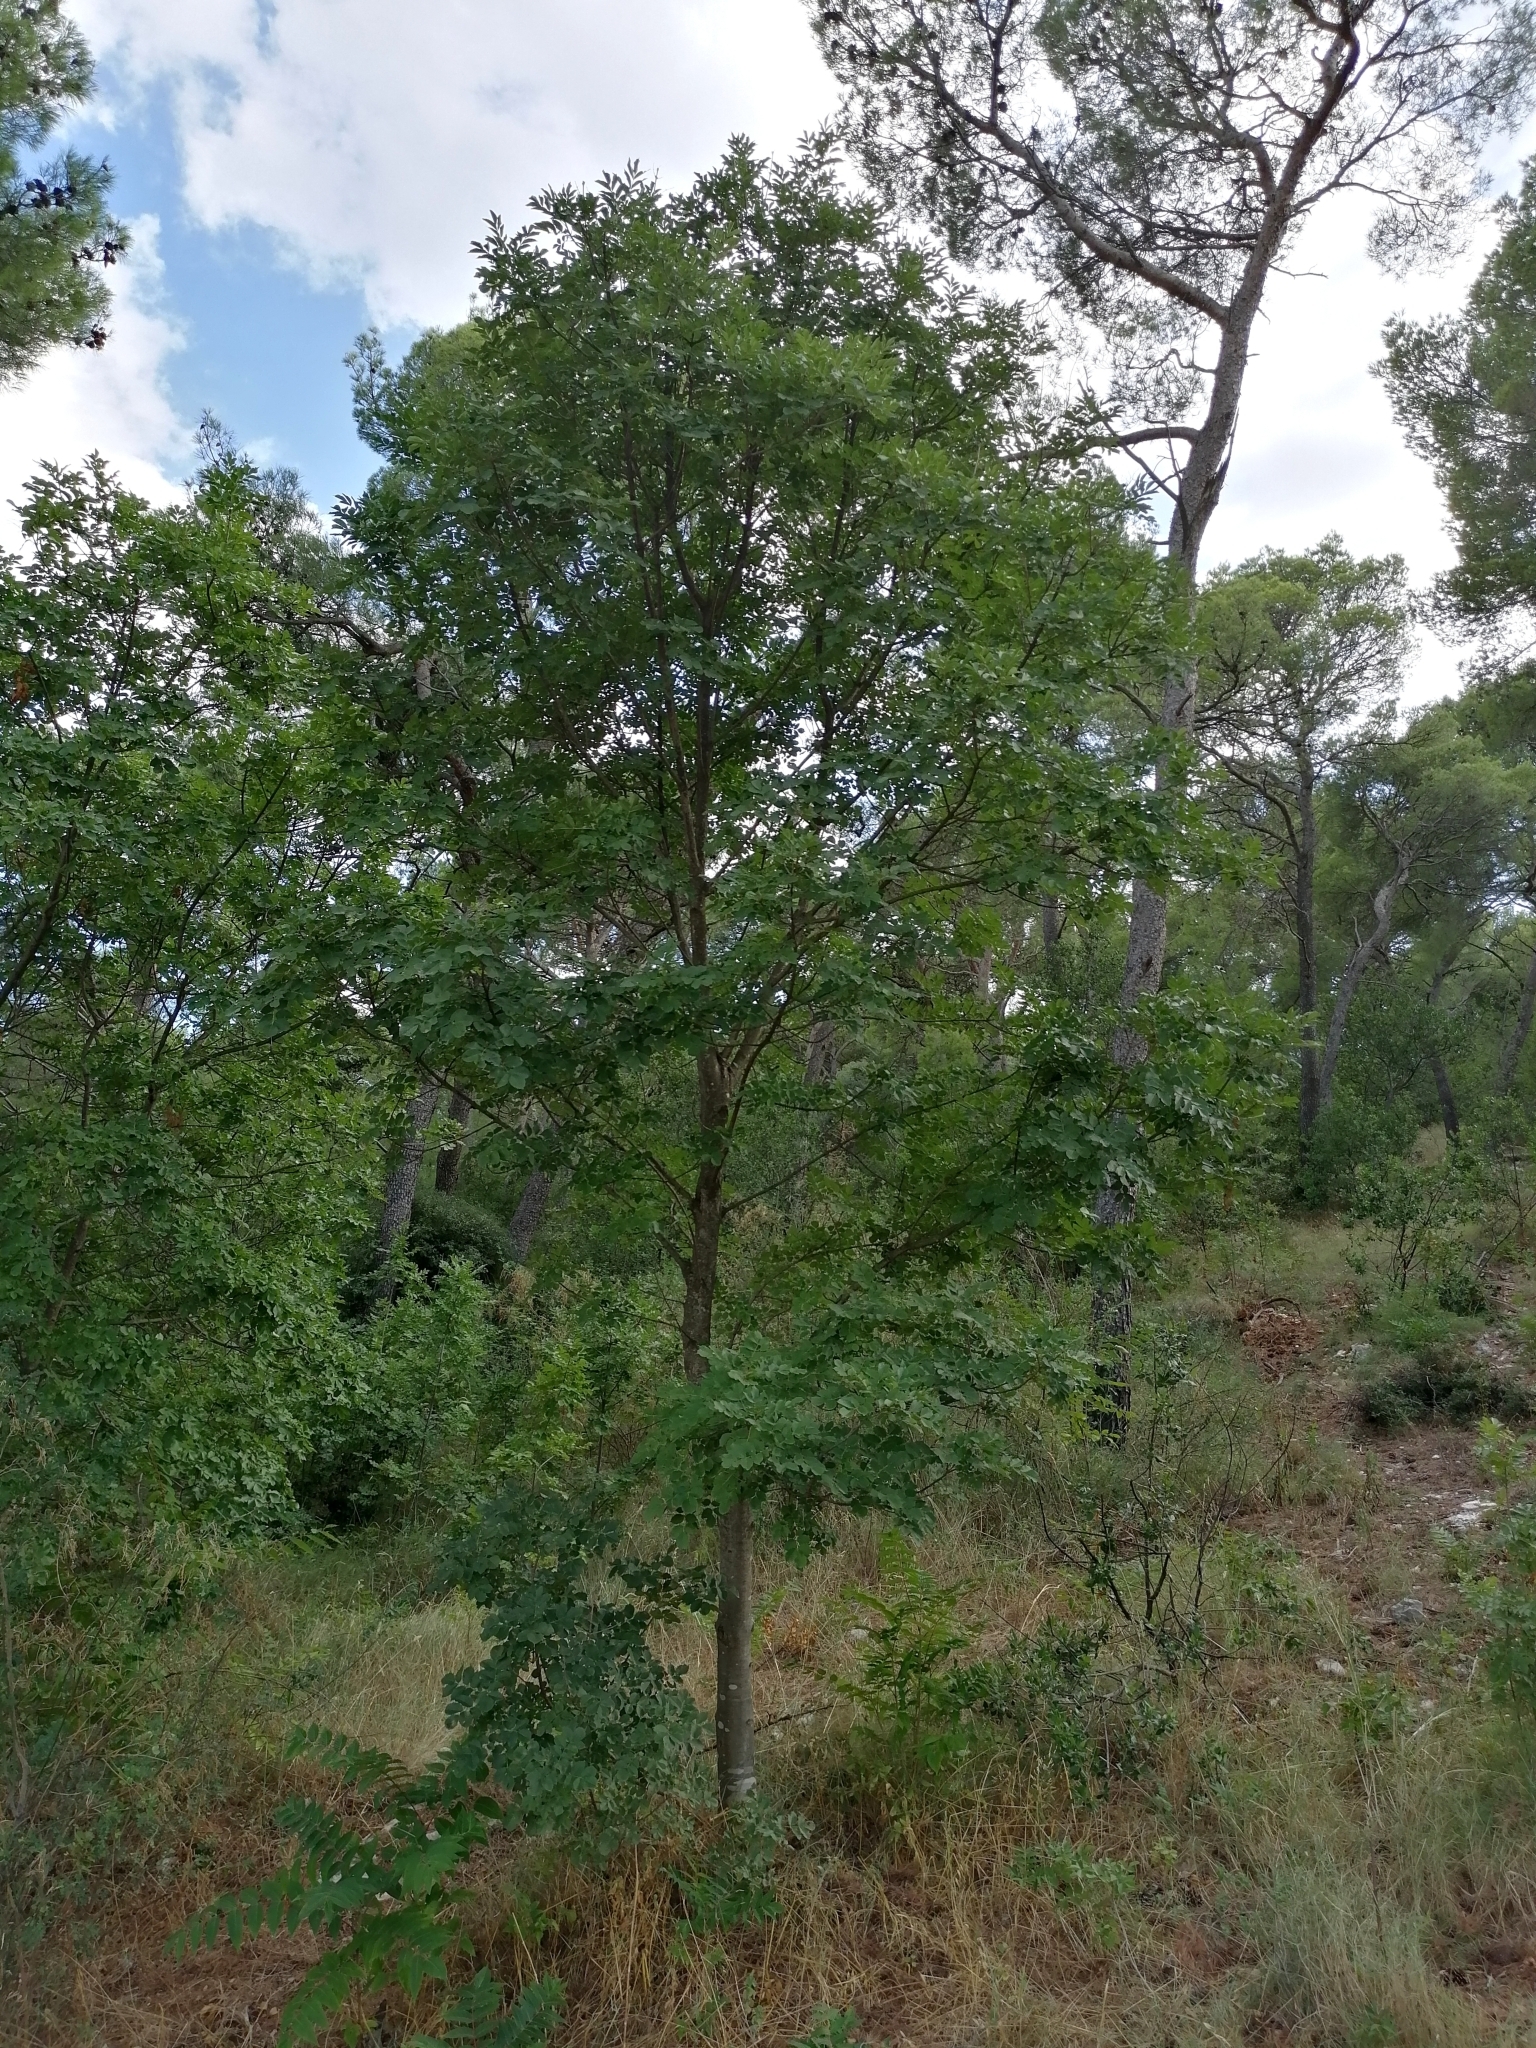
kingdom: Plantae
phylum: Tracheophyta
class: Magnoliopsida
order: Lamiales
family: Oleaceae
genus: Fraxinus
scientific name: Fraxinus ornus
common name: Manna ash
